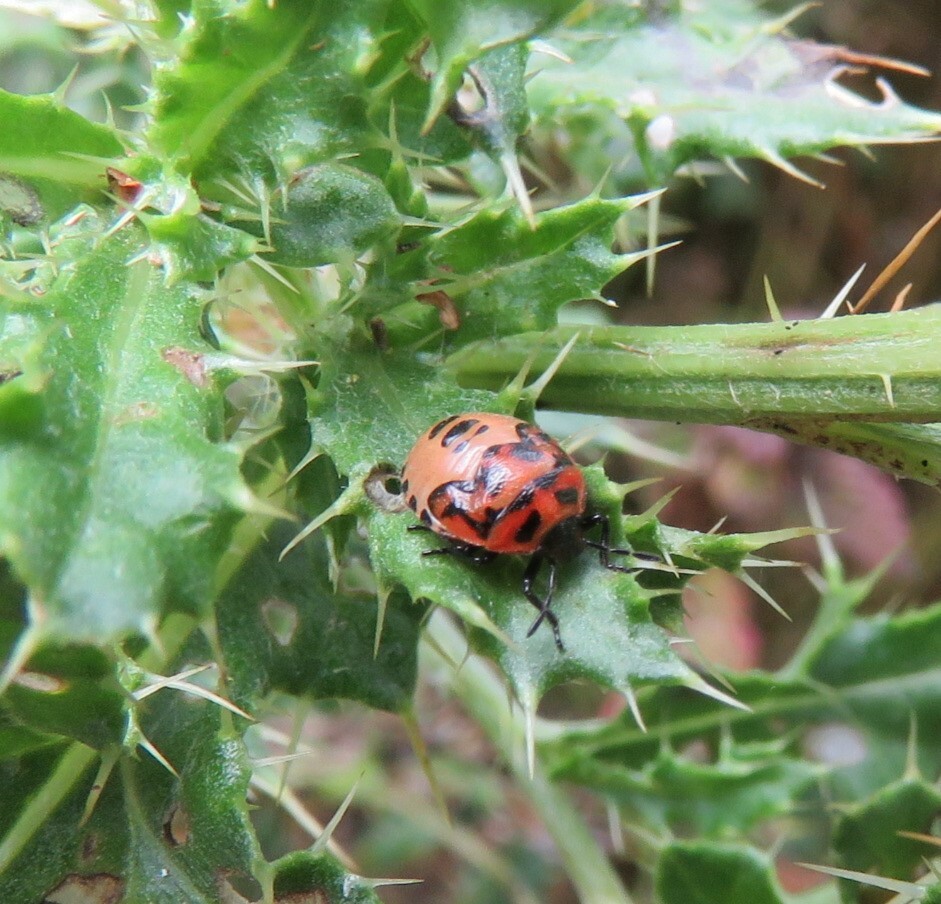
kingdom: Animalia
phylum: Arthropoda
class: Insecta
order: Hemiptera
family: Pentatomidae
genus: Cosmopepla
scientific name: Cosmopepla lintneriana
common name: Twice-stabbed stink bug
